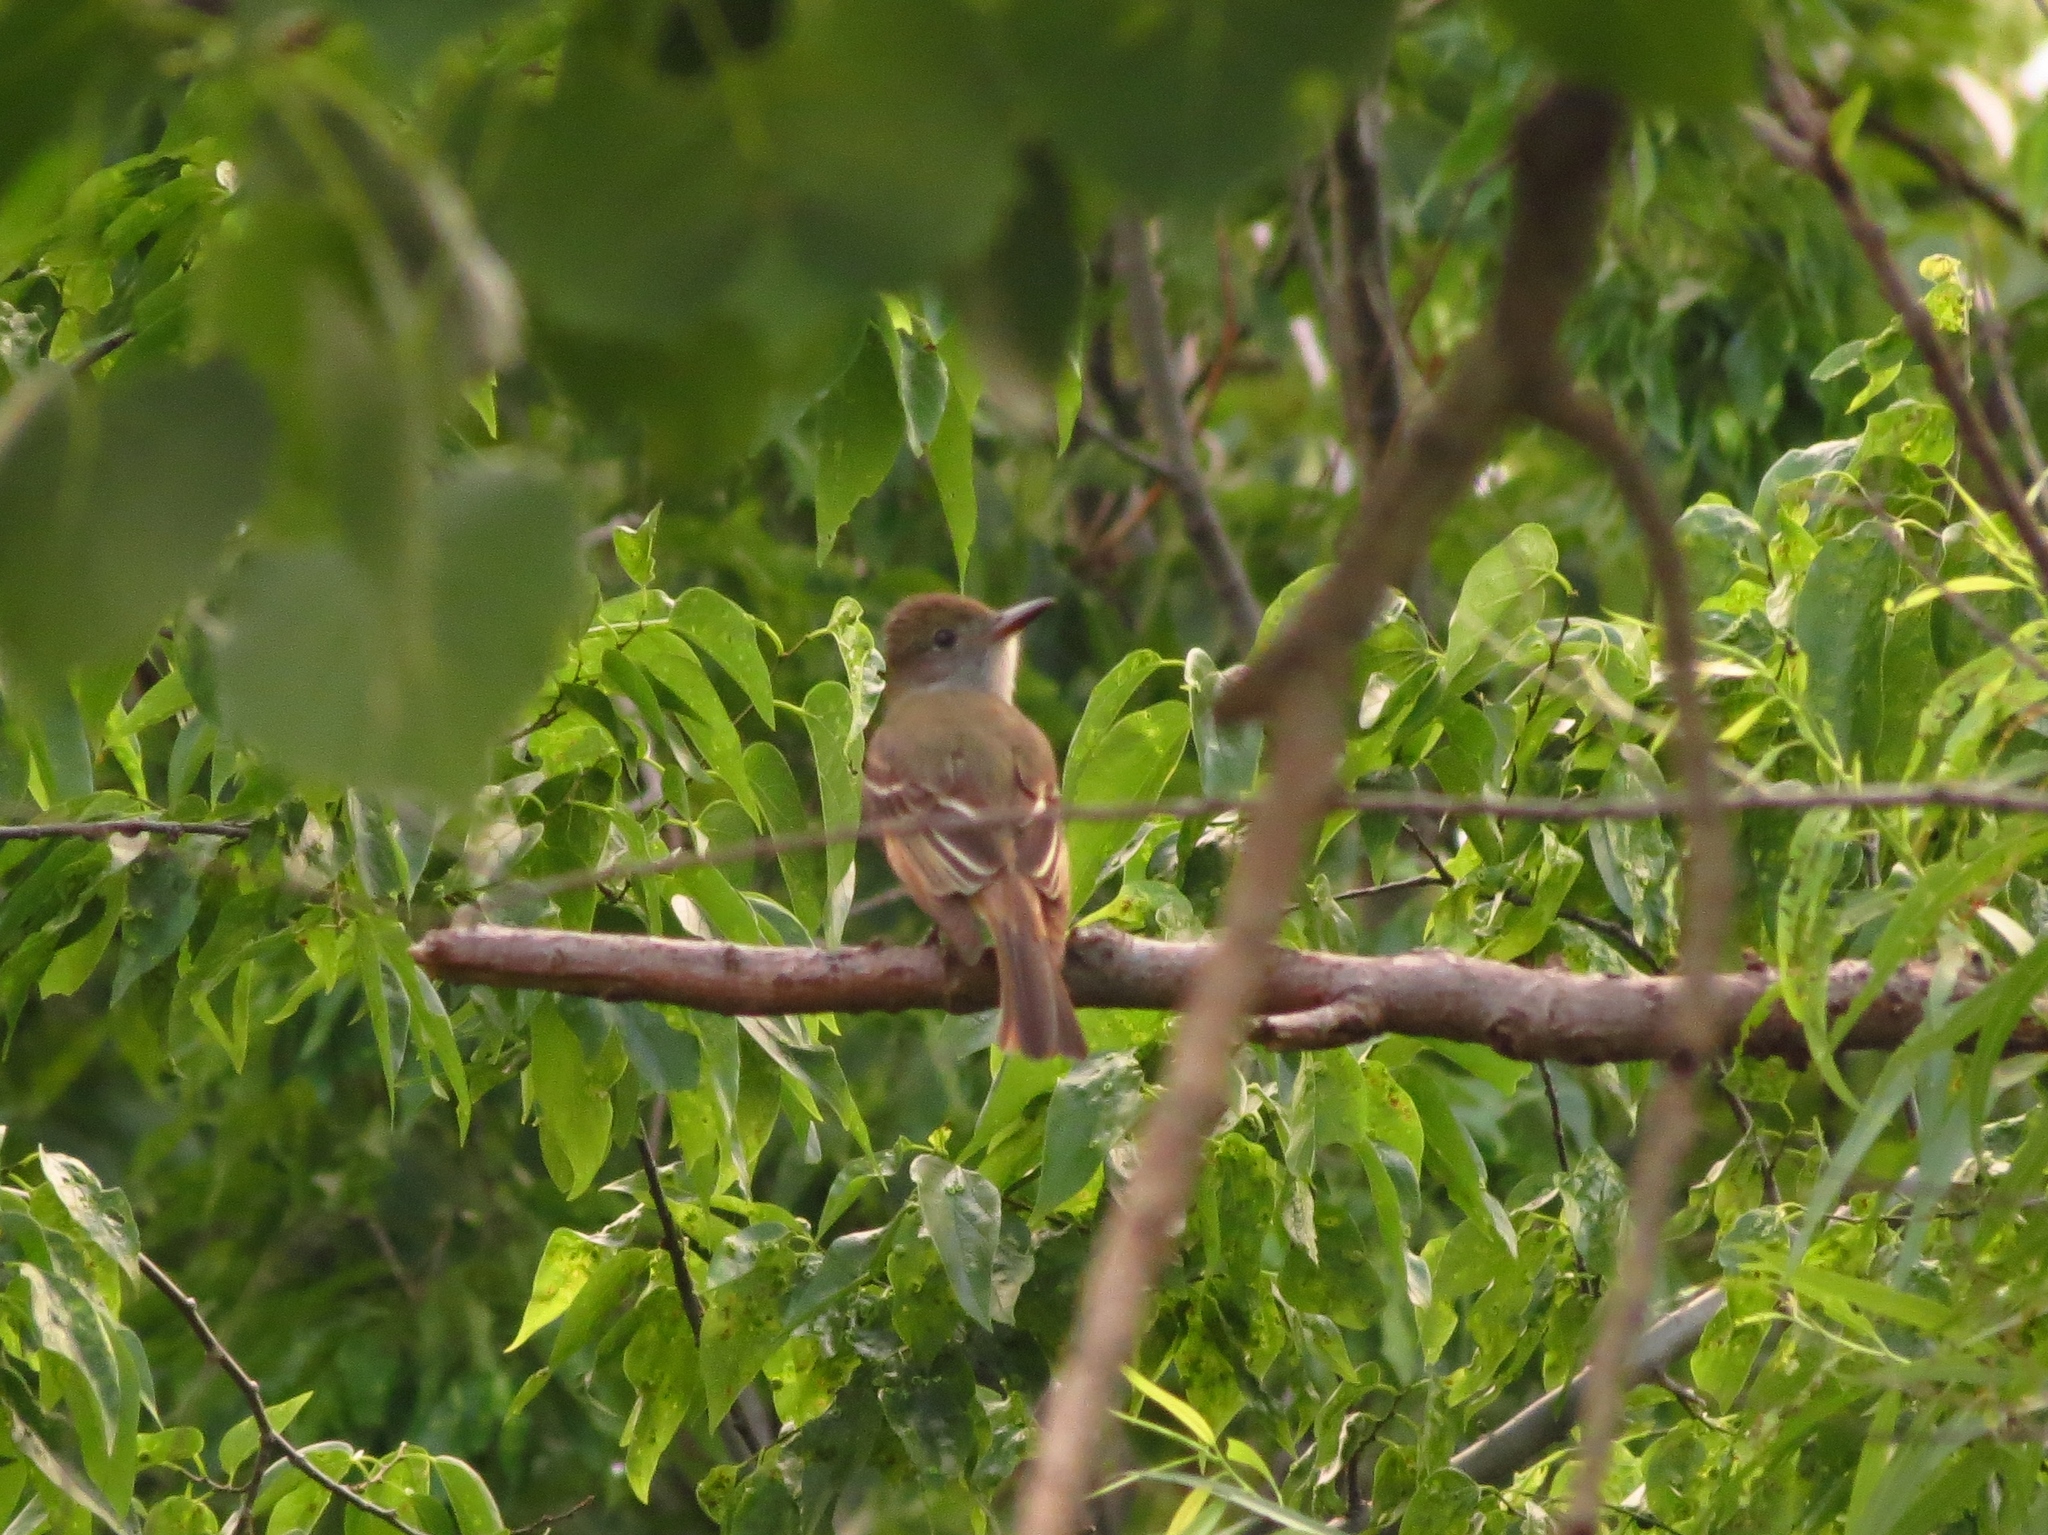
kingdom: Animalia
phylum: Chordata
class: Aves
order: Passeriformes
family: Tyrannidae
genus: Myiarchus
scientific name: Myiarchus crinitus
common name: Great crested flycatcher
